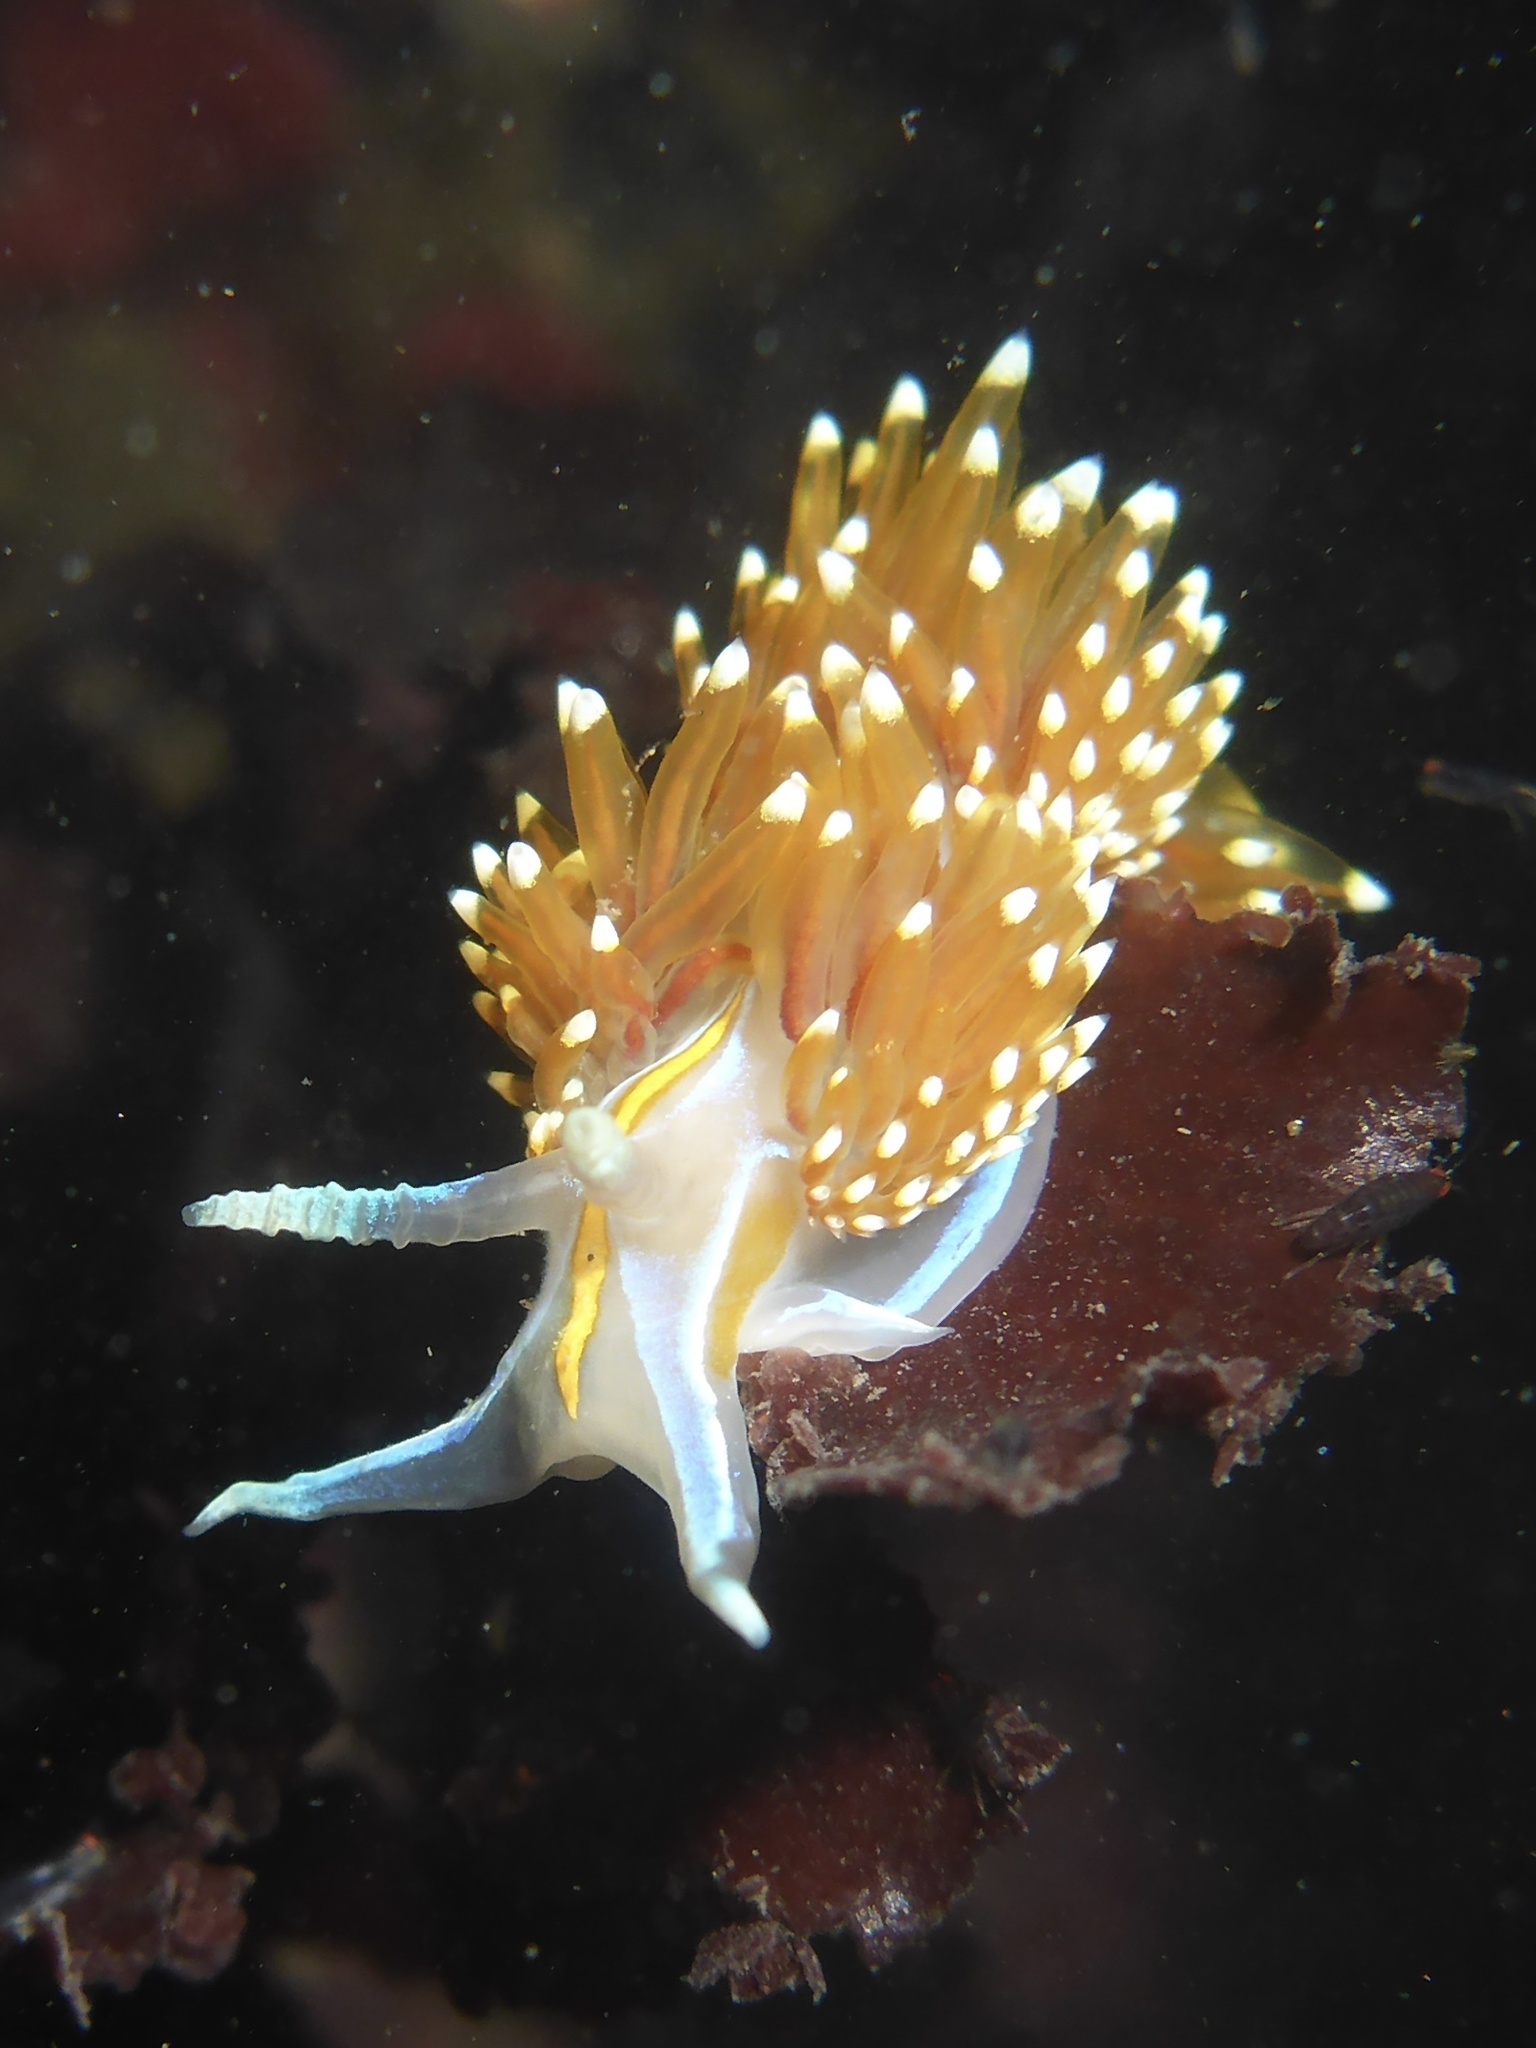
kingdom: Animalia
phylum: Mollusca
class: Gastropoda
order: Nudibranchia
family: Myrrhinidae
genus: Hermissenda
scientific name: Hermissenda opalescens
